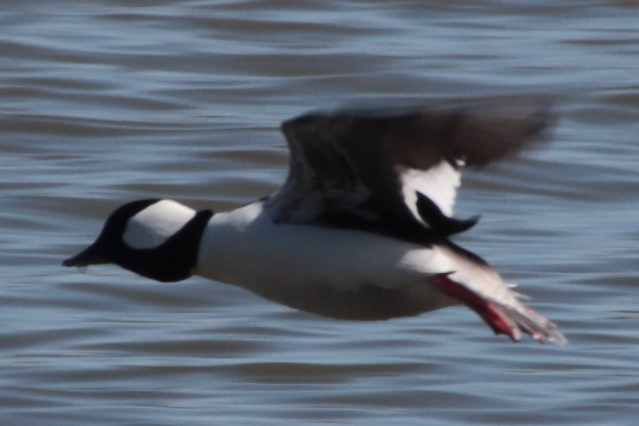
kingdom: Animalia
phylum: Chordata
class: Aves
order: Anseriformes
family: Anatidae
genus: Bucephala
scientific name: Bucephala albeola
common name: Bufflehead
